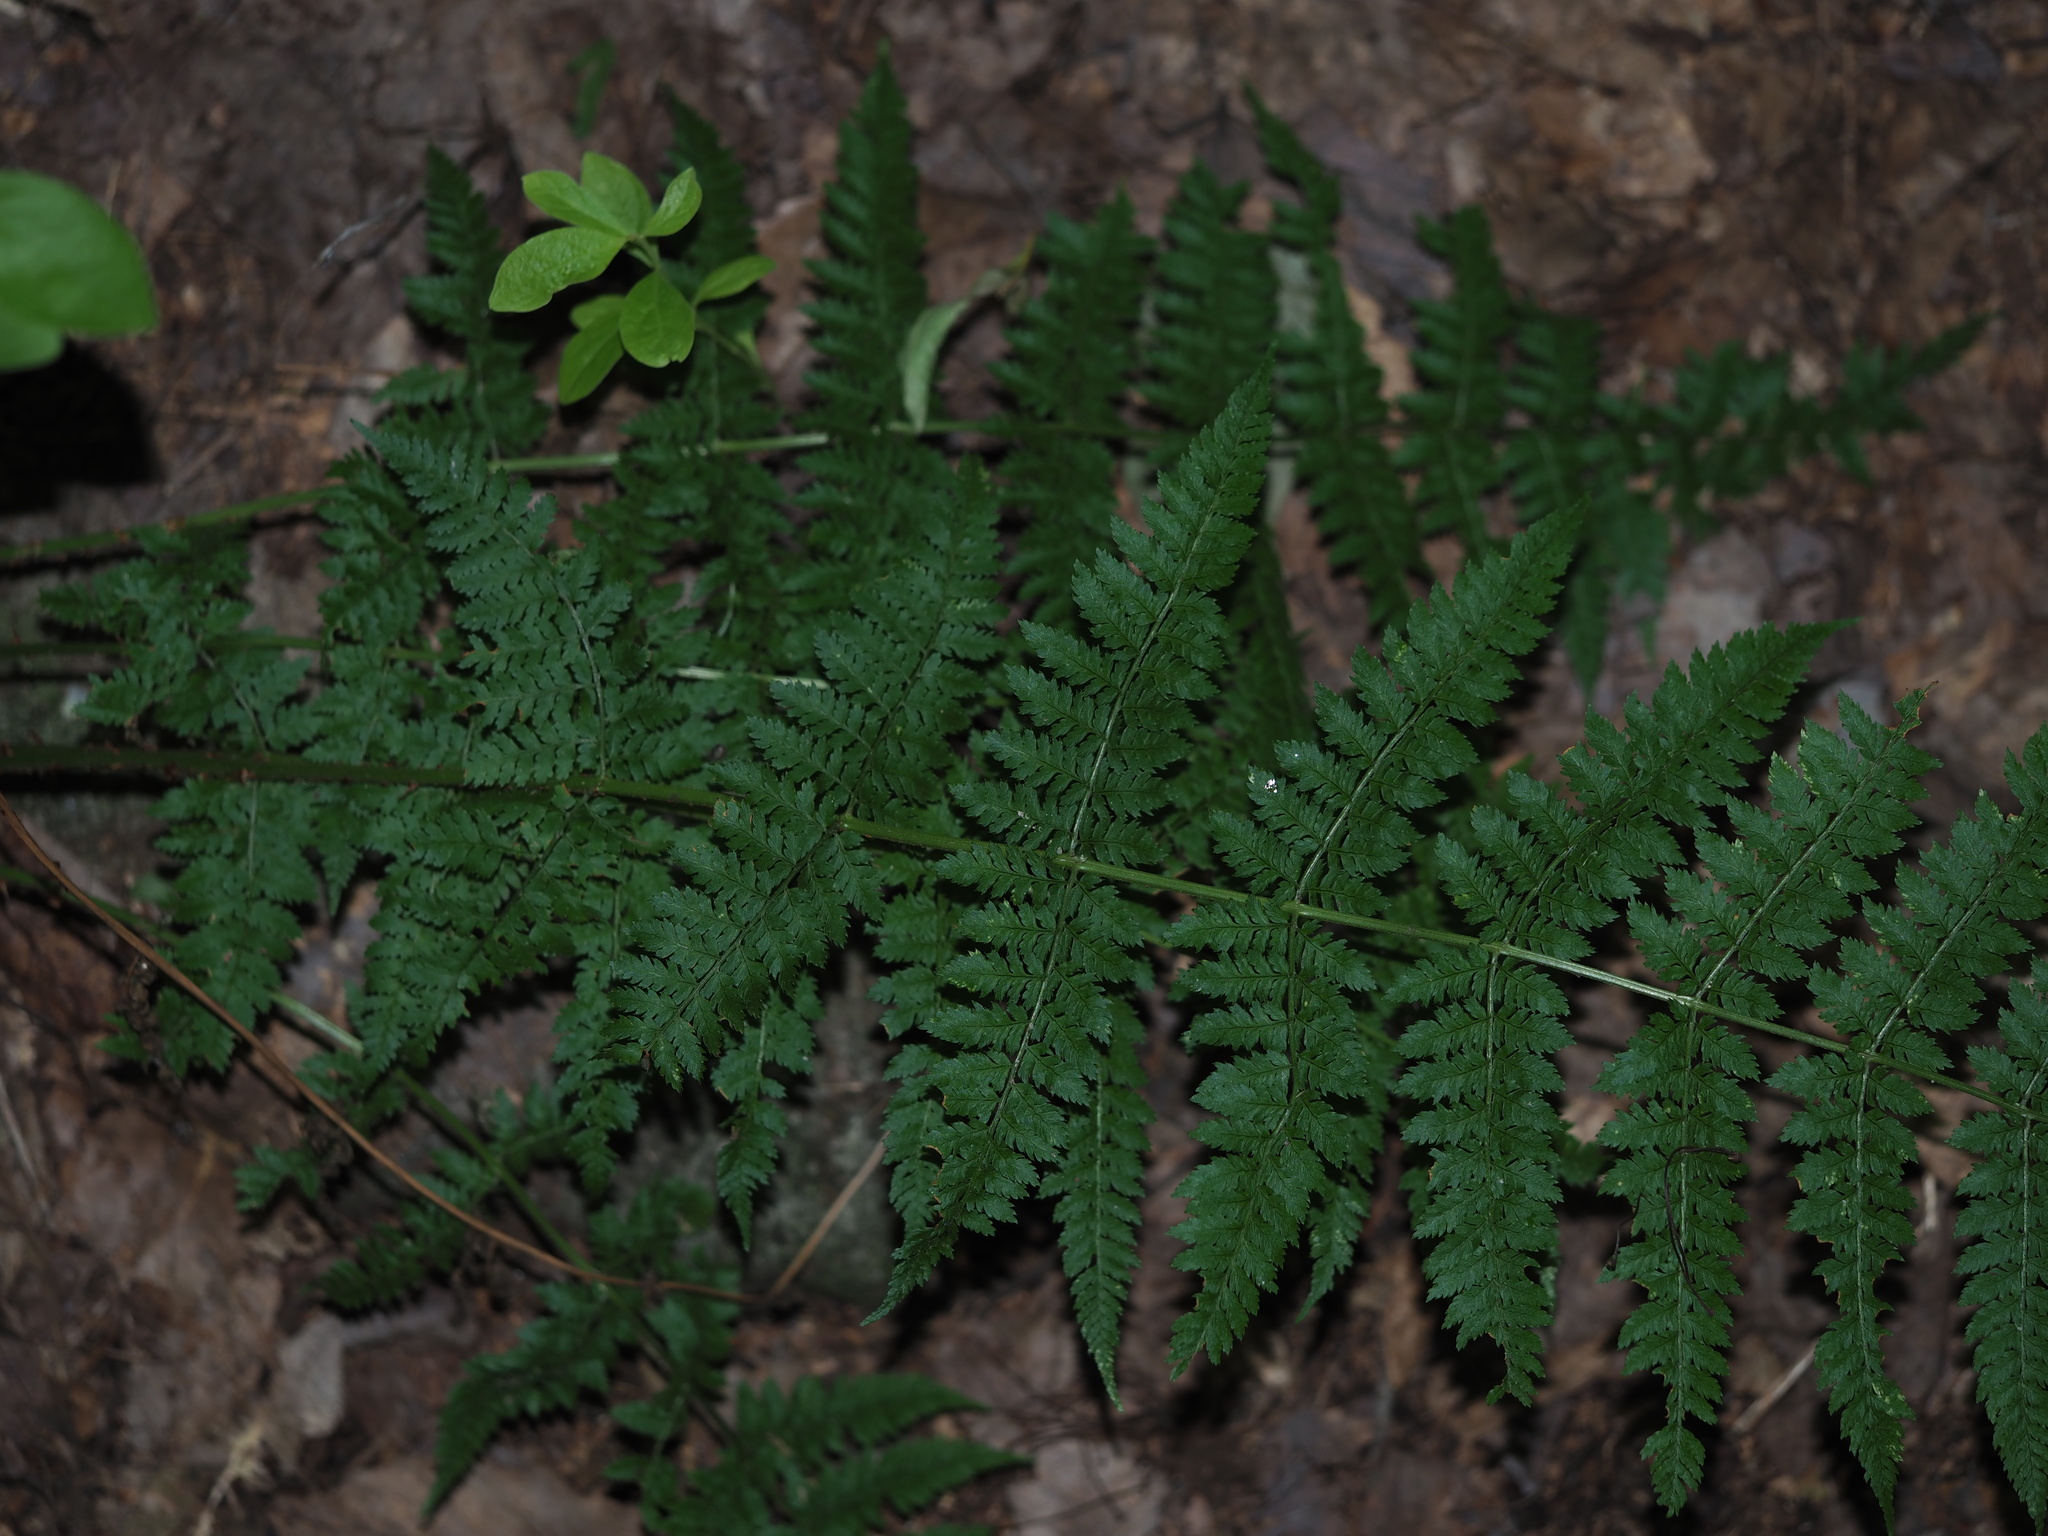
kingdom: Plantae
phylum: Tracheophyta
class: Polypodiopsida
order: Polypodiales
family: Dryopteridaceae
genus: Dryopteris
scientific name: Dryopteris intermedia
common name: Evergreen wood fern
